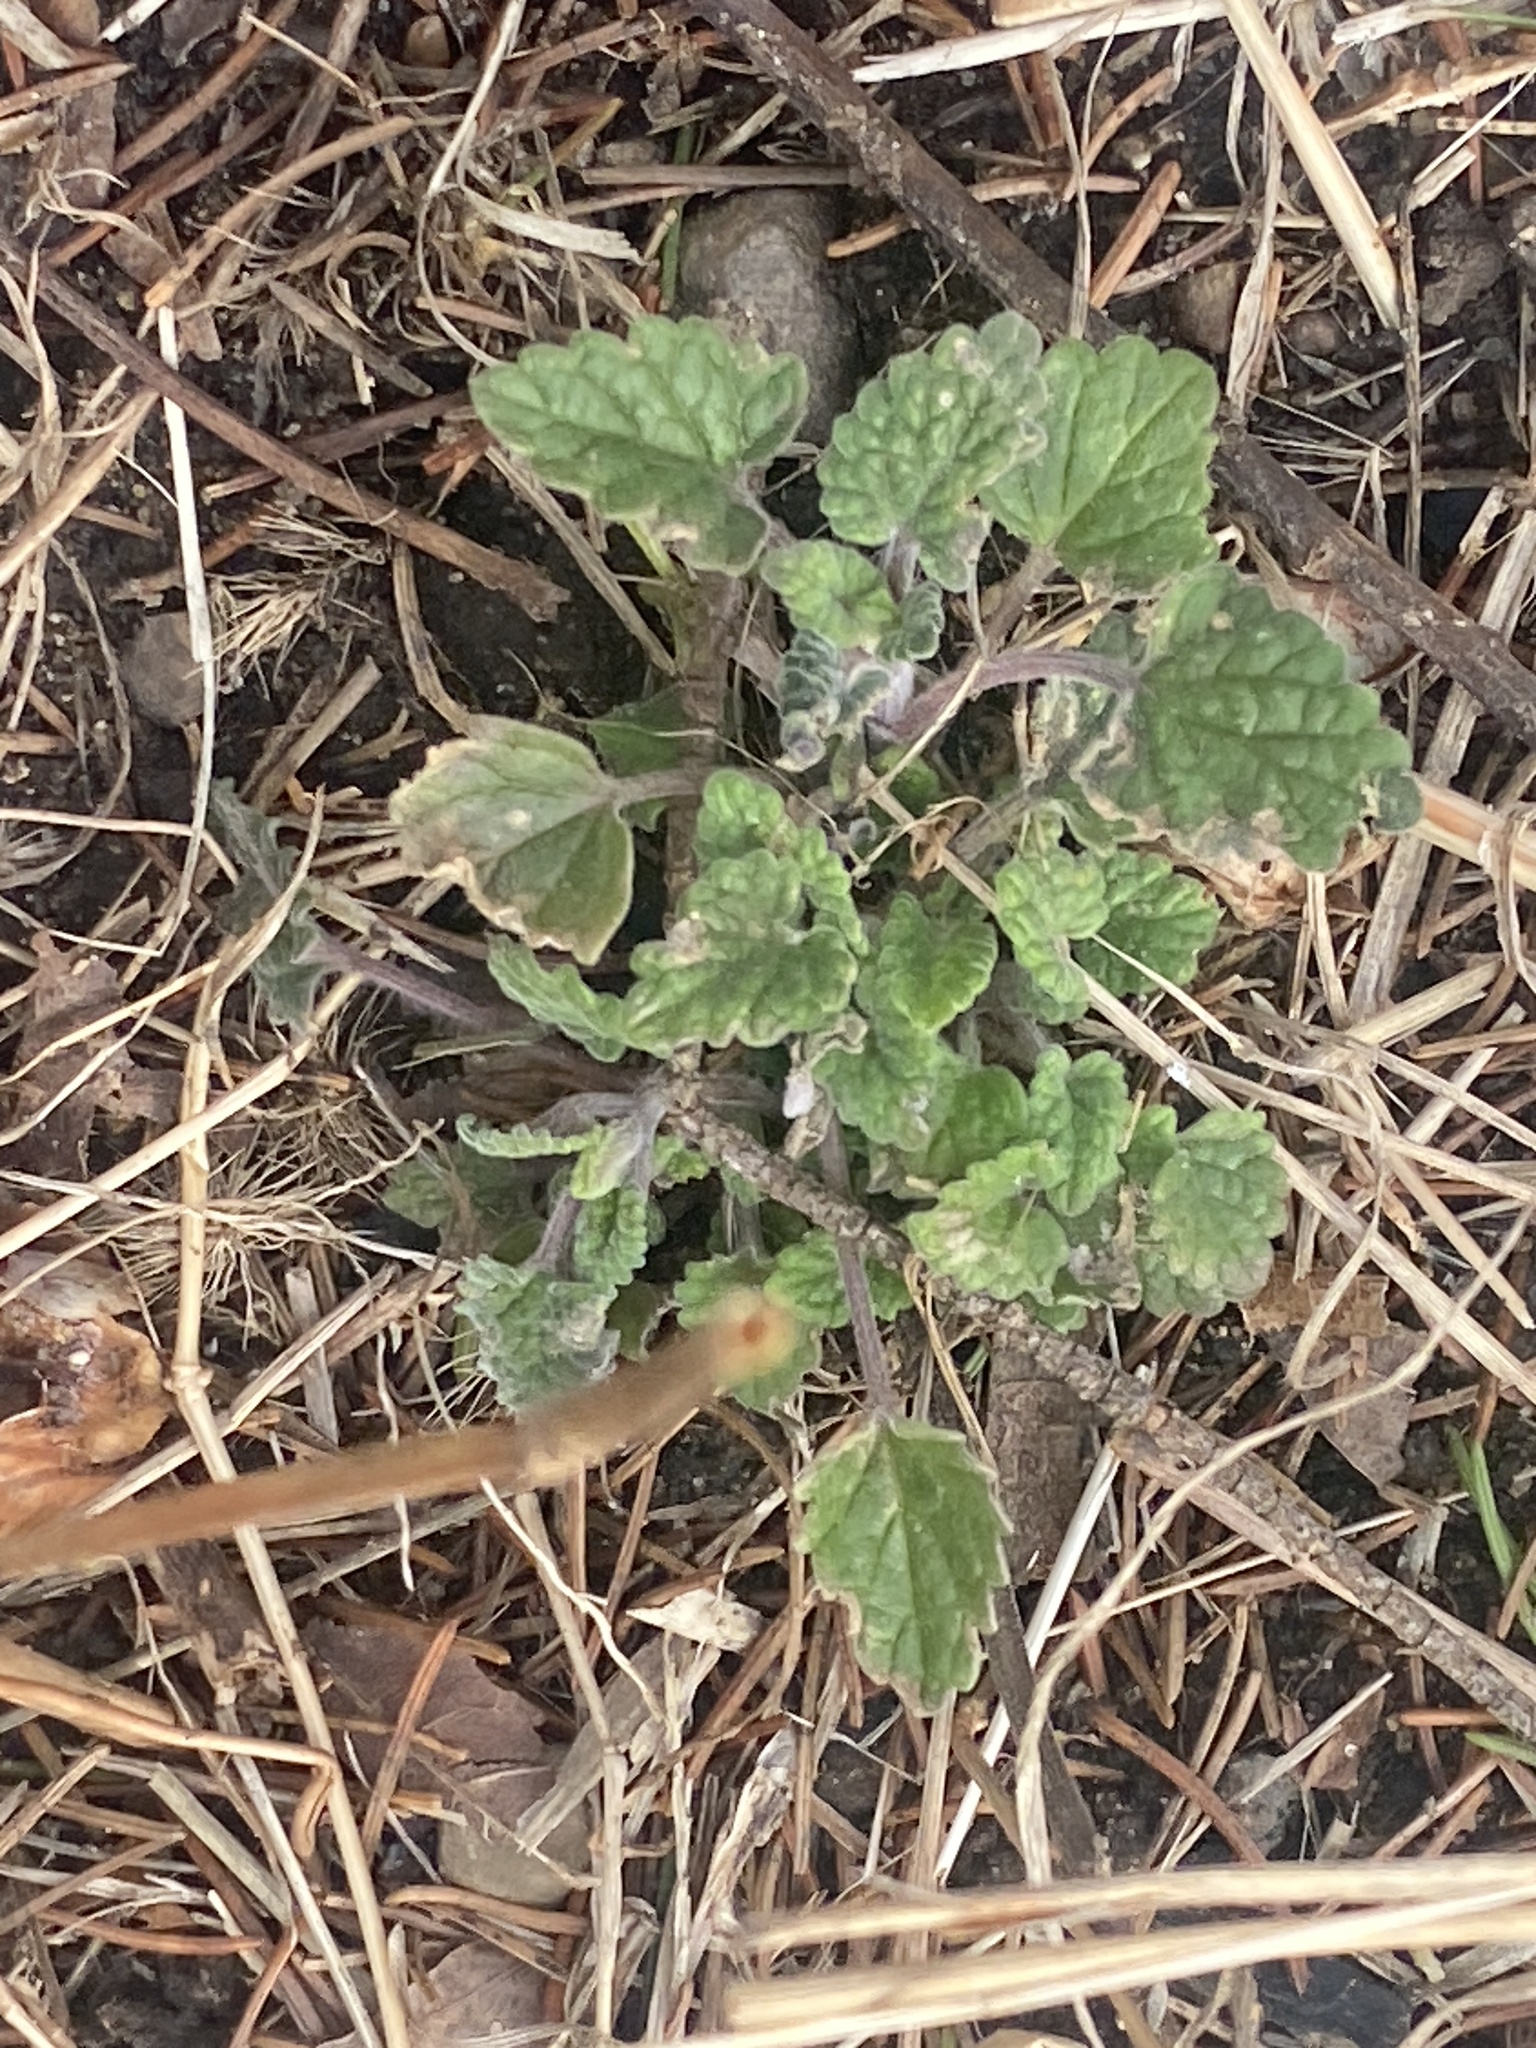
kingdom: Plantae
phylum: Tracheophyta
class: Magnoliopsida
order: Lamiales
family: Lamiaceae
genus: Nepeta
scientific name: Nepeta cataria
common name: Catnip
